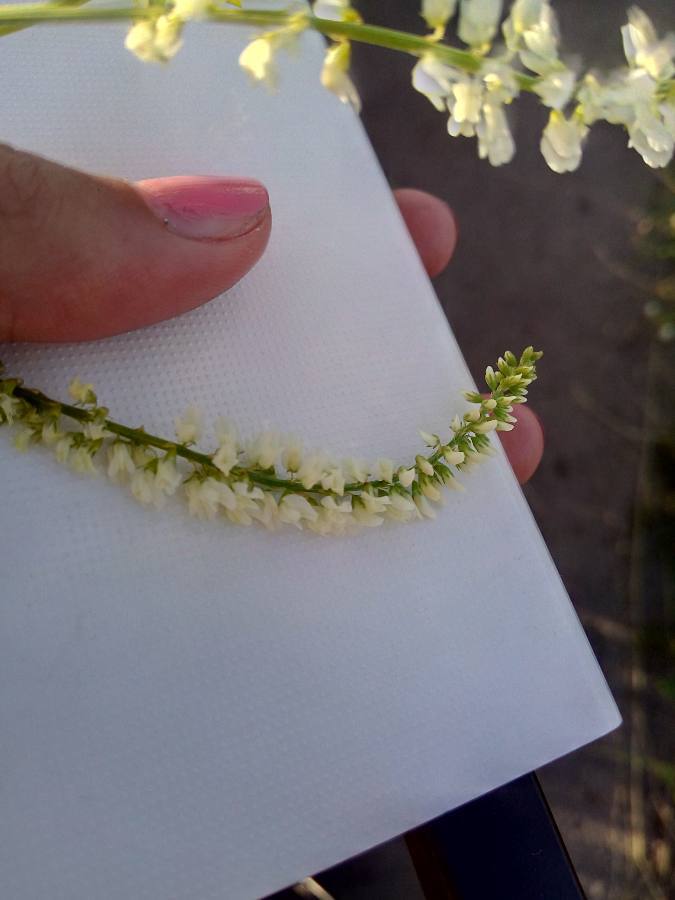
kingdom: Plantae
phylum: Tracheophyta
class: Magnoliopsida
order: Fabales
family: Fabaceae
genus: Melilotus
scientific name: Melilotus albus
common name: White melilot
